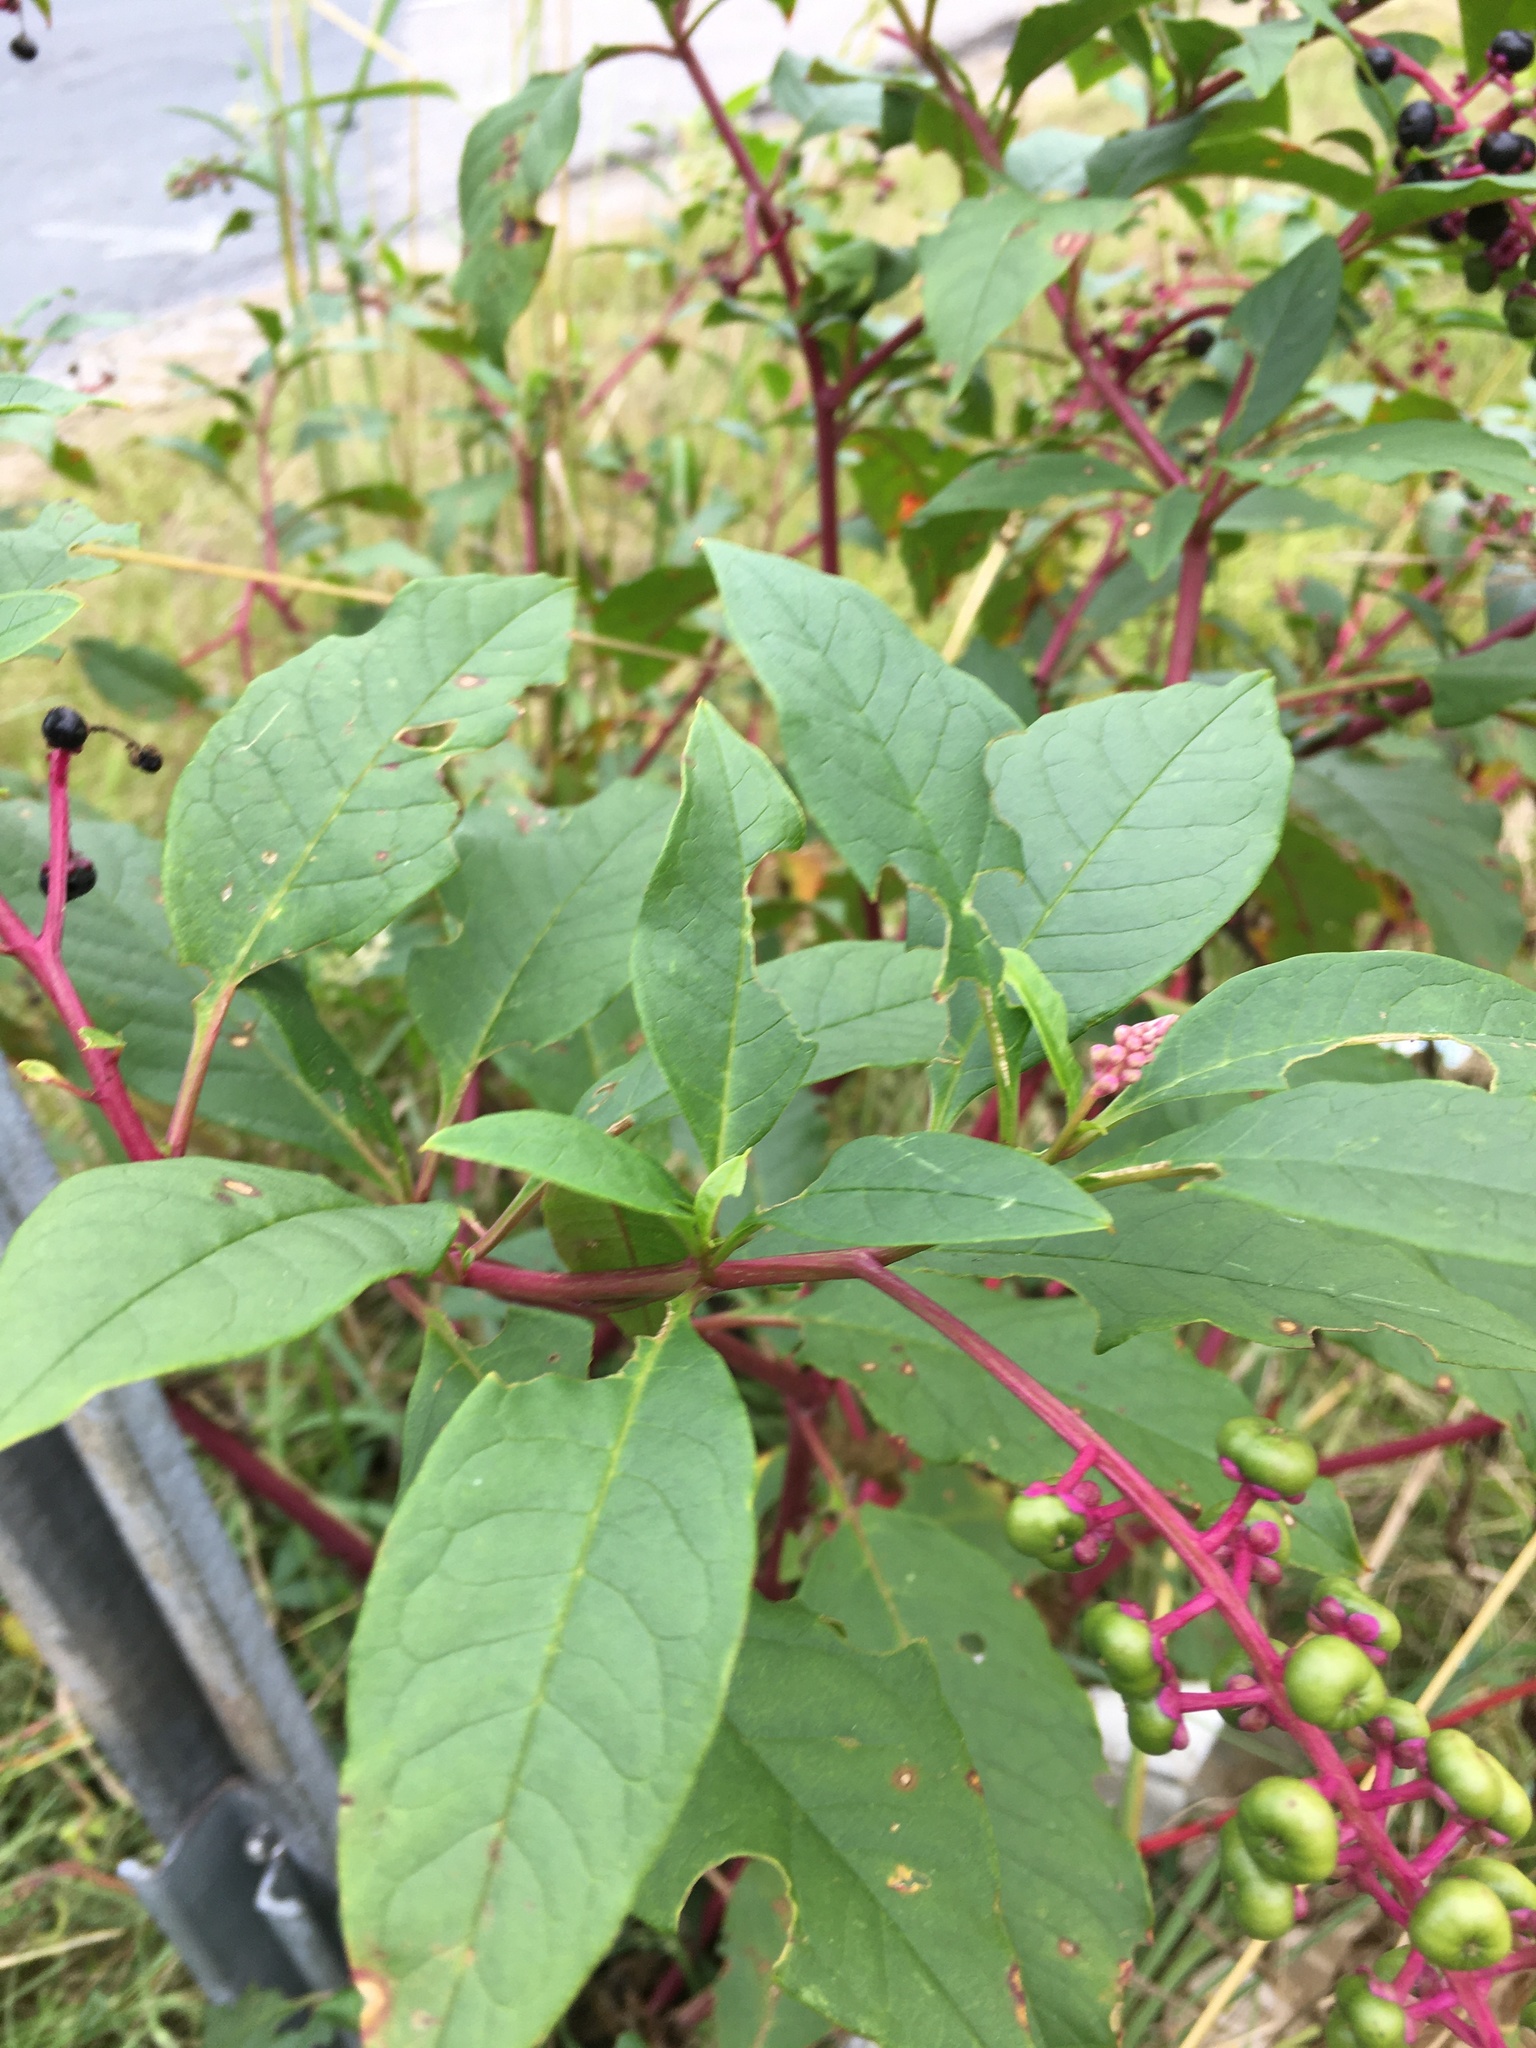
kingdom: Plantae
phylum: Tracheophyta
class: Magnoliopsida
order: Caryophyllales
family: Phytolaccaceae
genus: Phytolacca
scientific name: Phytolacca americana
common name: American pokeweed
